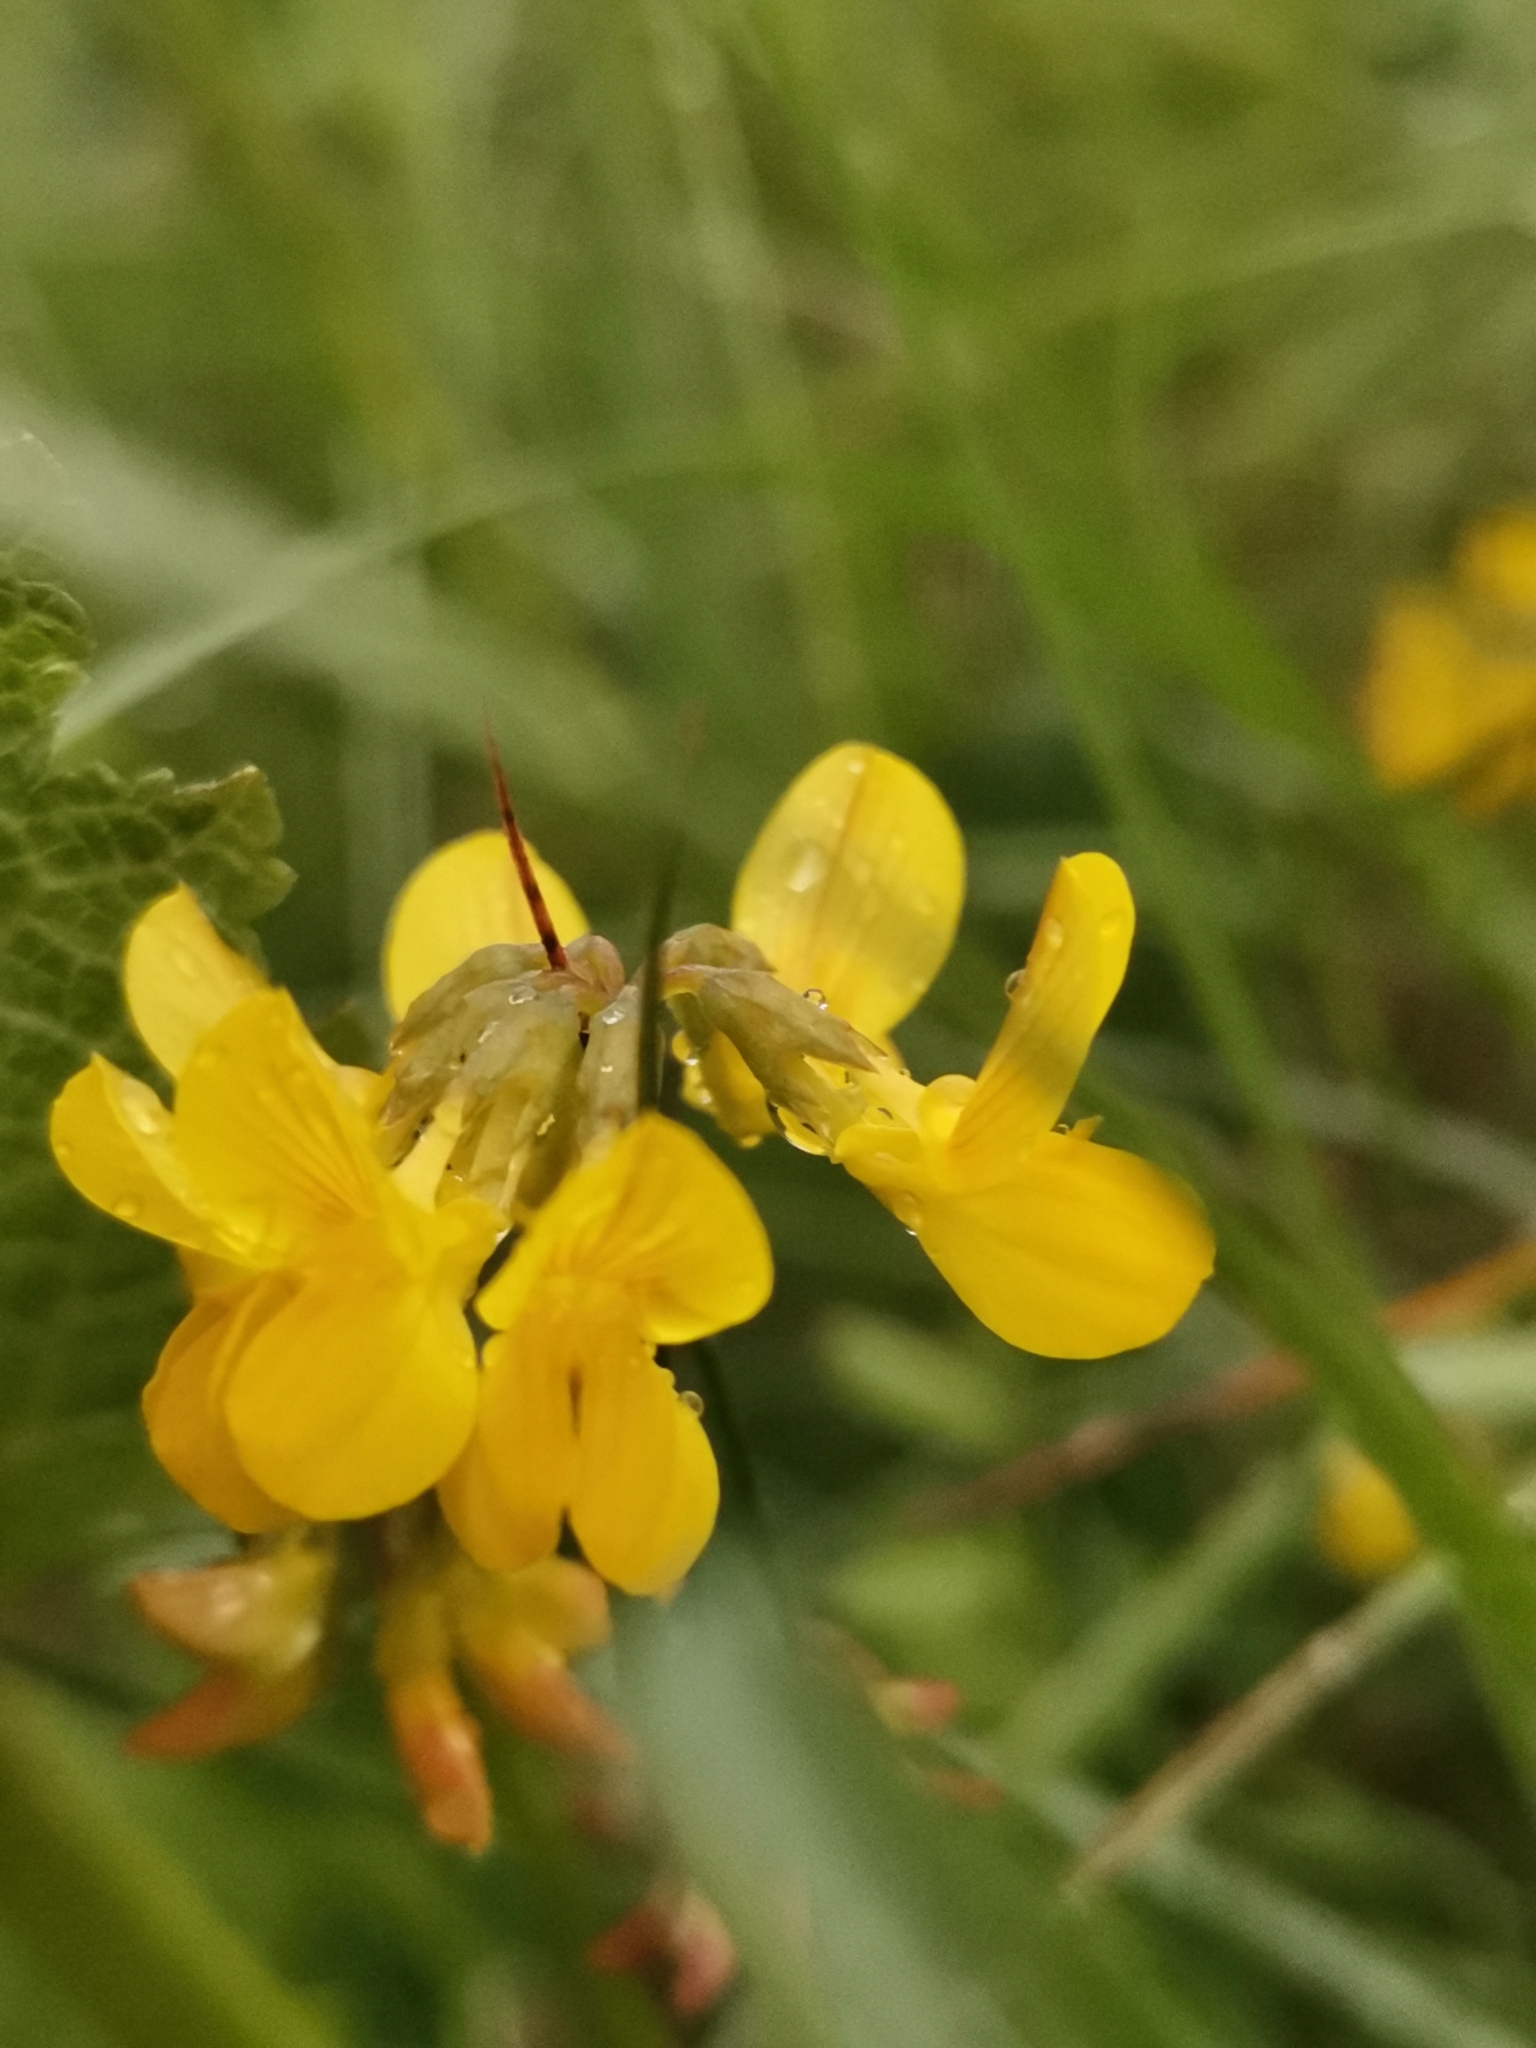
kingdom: Plantae
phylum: Tracheophyta
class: Magnoliopsida
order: Fabales
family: Fabaceae
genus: Hippocrepis
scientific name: Hippocrepis comosa
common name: Horseshoe vetch
